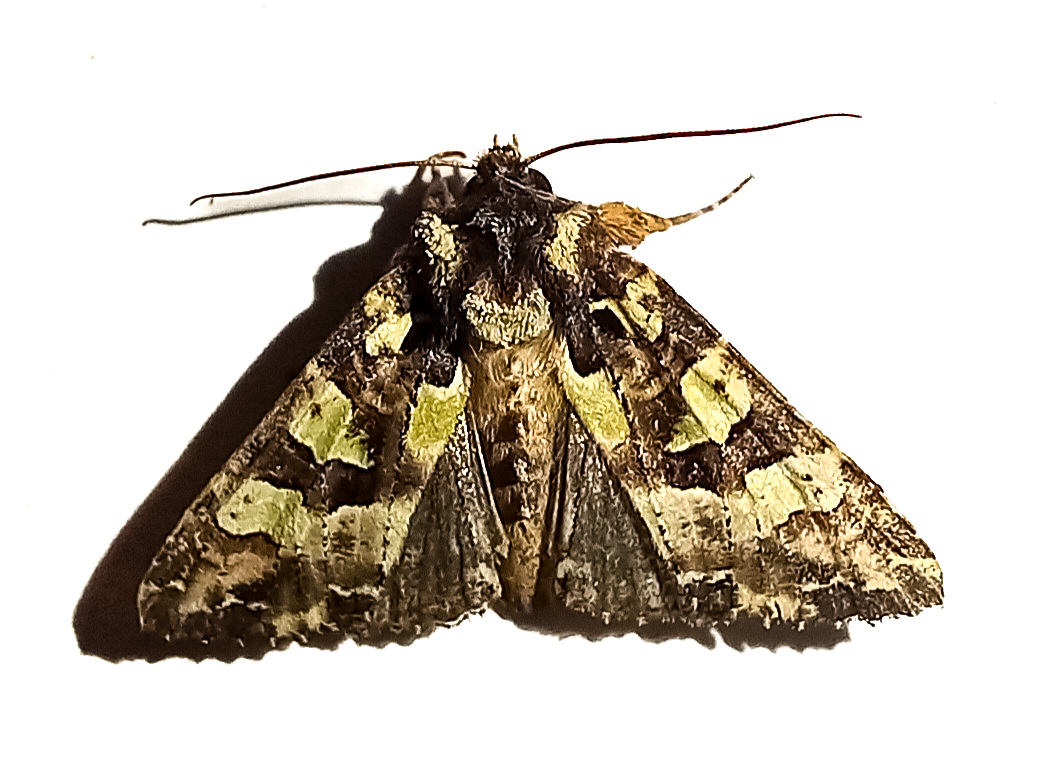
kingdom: Animalia
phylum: Arthropoda
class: Insecta
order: Lepidoptera
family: Noctuidae
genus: Meterana
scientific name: Meterana pauca
